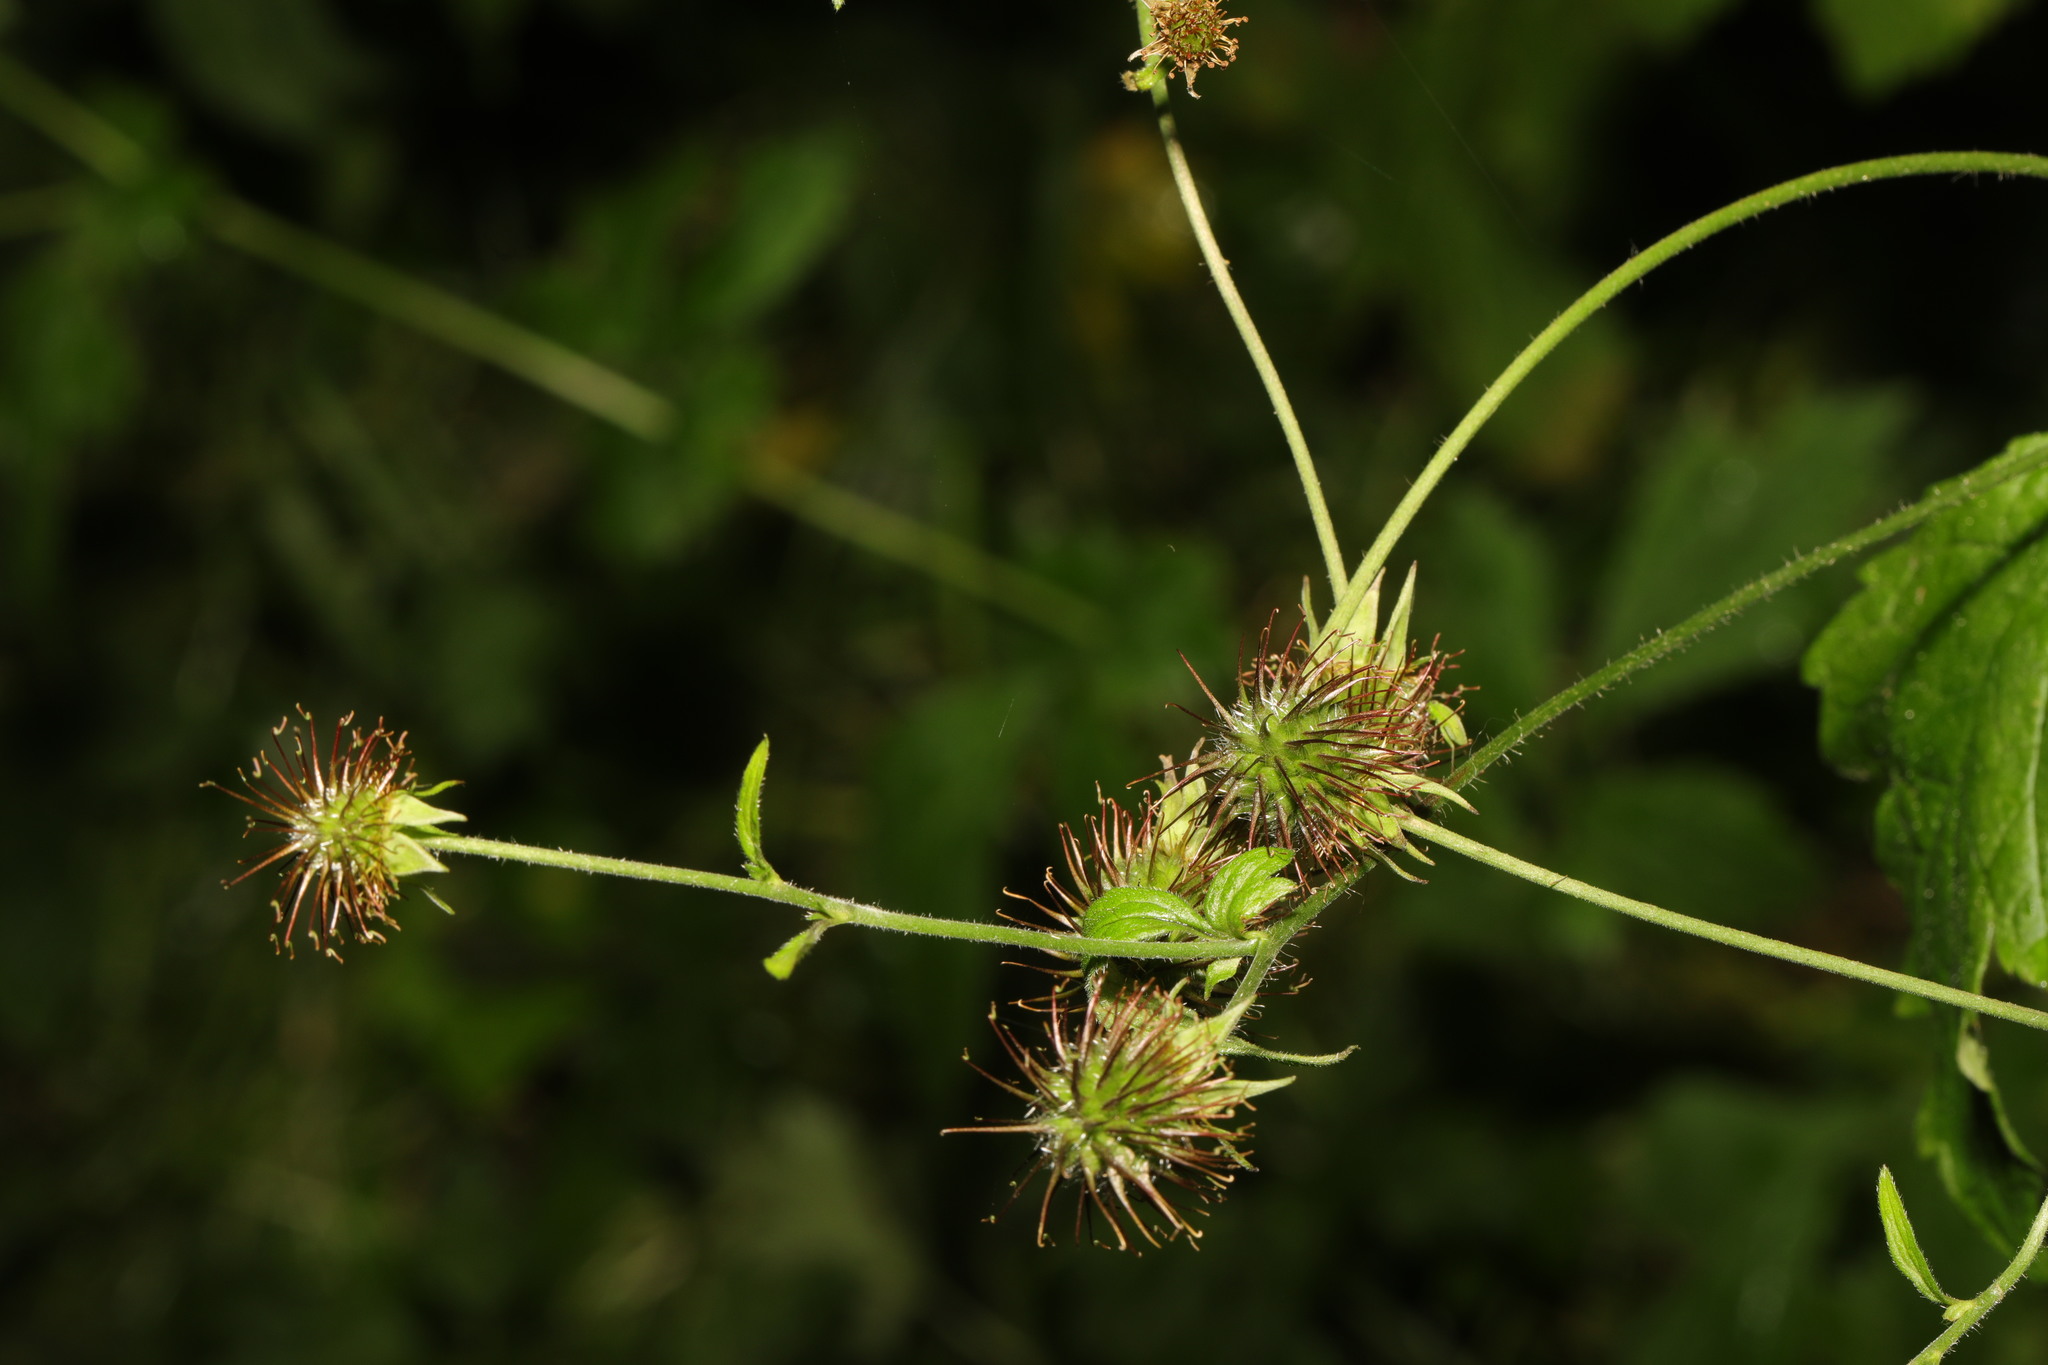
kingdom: Plantae
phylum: Tracheophyta
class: Magnoliopsida
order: Rosales
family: Rosaceae
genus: Geum
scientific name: Geum urbanum
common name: Wood avens
